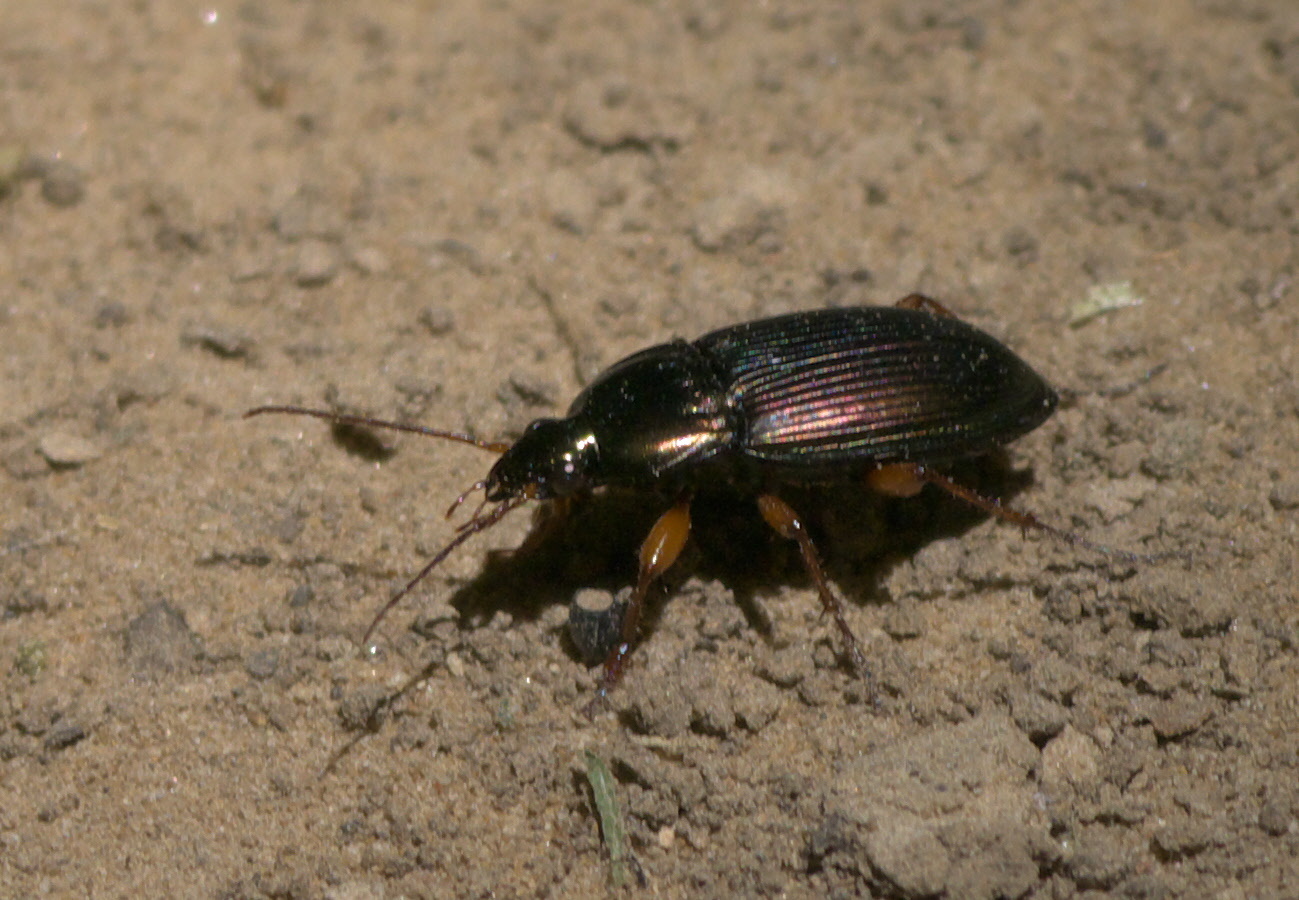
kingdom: Animalia
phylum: Arthropoda
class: Insecta
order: Coleoptera
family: Carabidae
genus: Poecilus
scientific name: Poecilus lucublandus
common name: Woodland ground beetle
